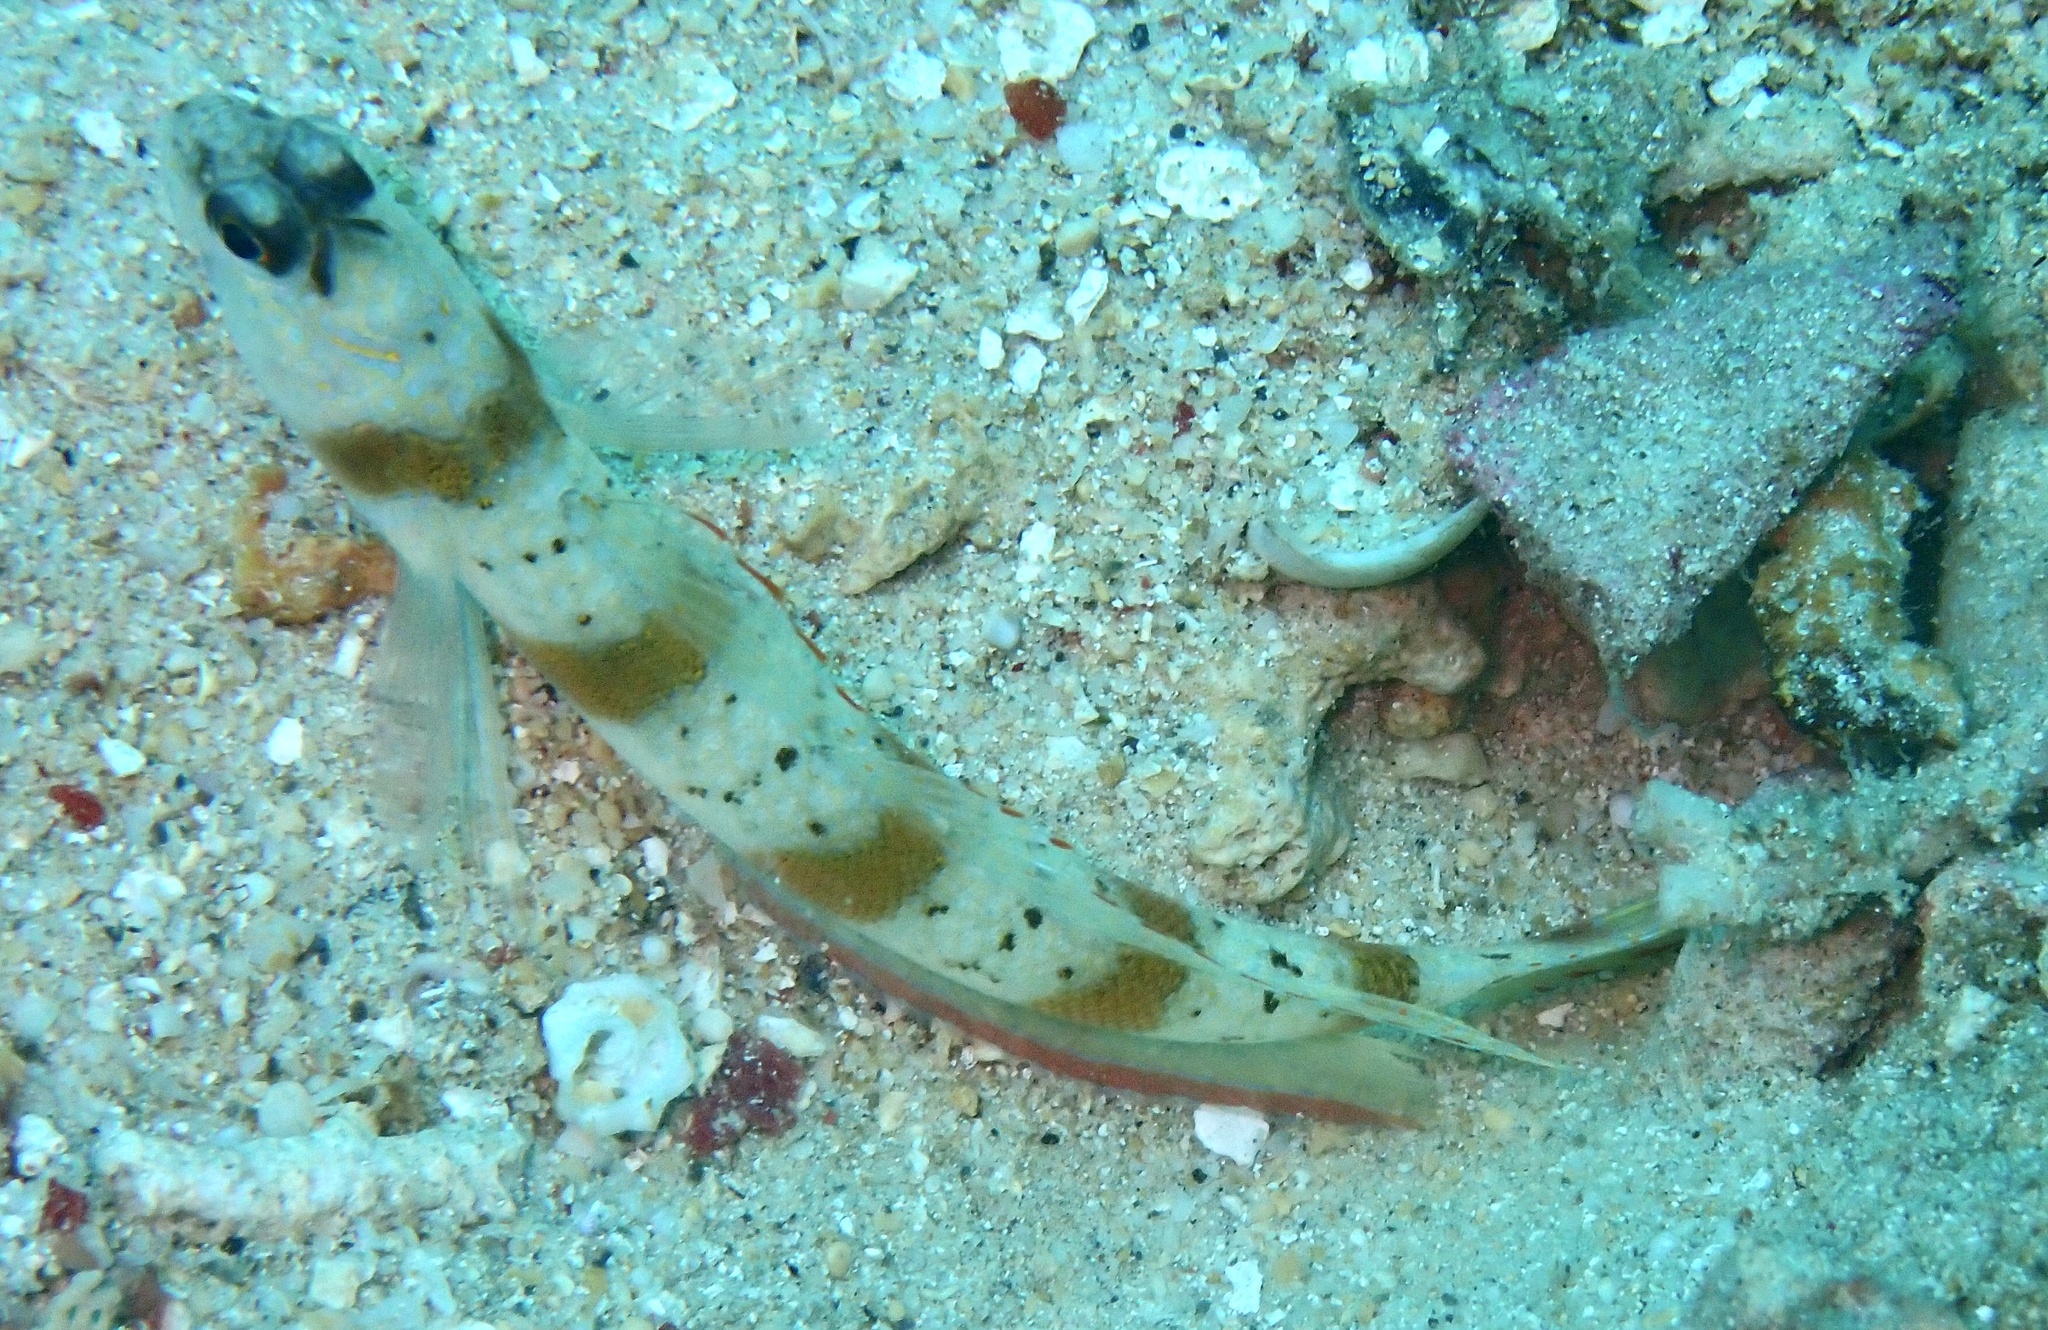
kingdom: Animalia
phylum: Chordata
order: Perciformes
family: Gobiidae
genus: Amblyeleotris
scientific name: Amblyeleotris rubrimarginata
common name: Redmargin shrimpgoby
